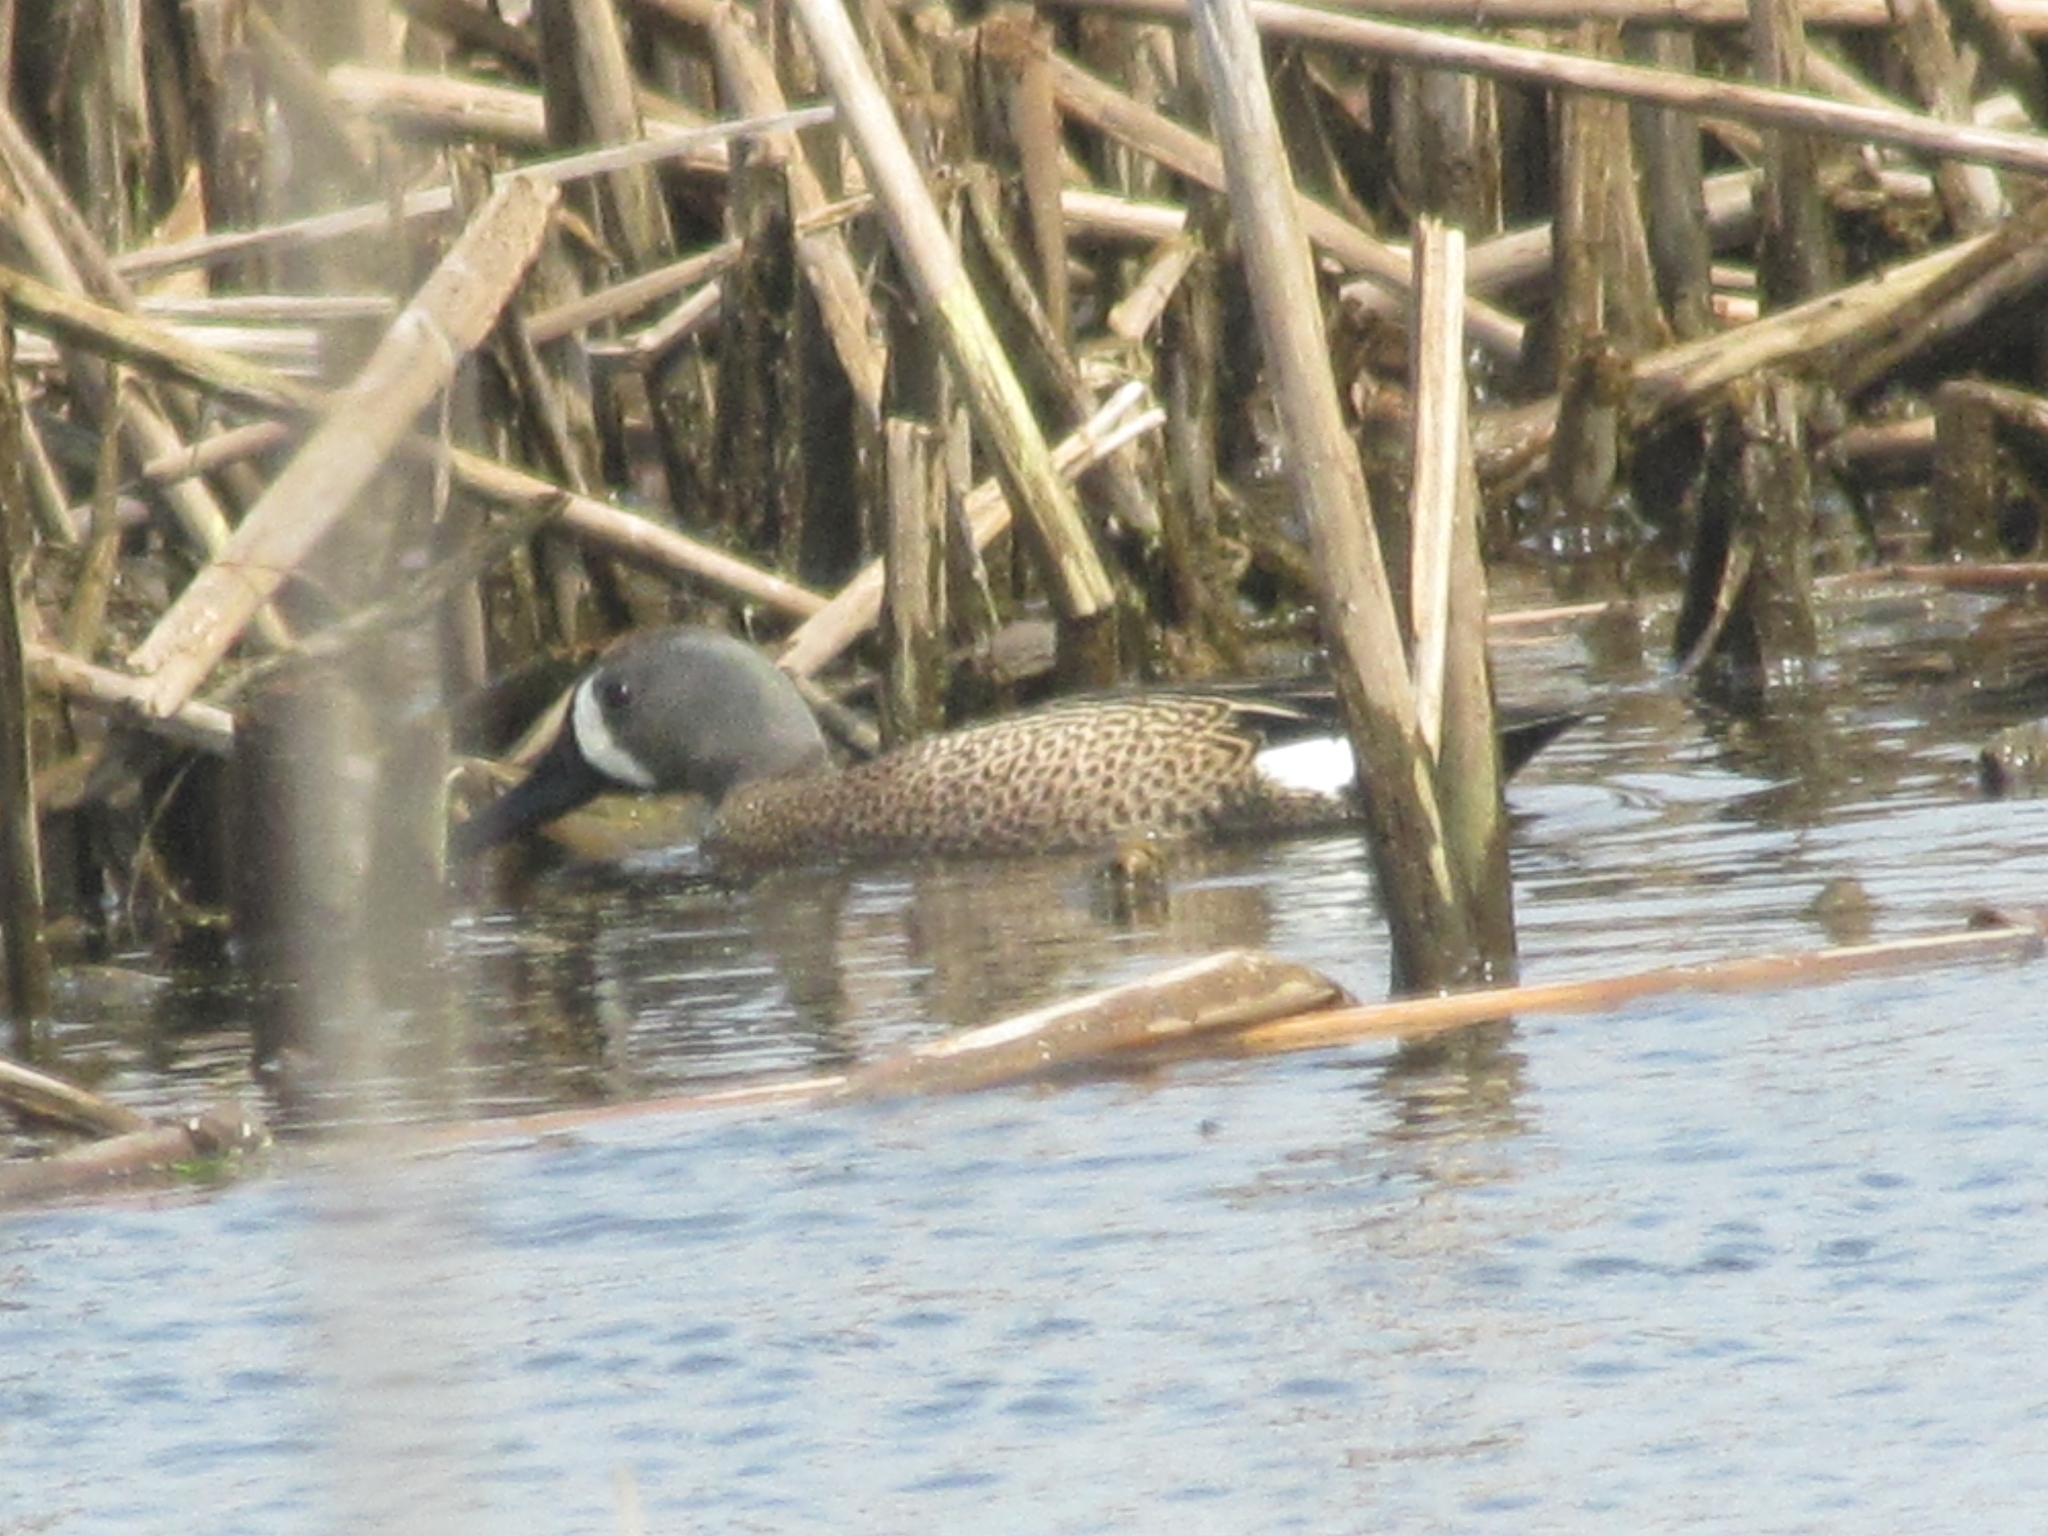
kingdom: Animalia
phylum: Chordata
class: Aves
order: Anseriformes
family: Anatidae
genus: Spatula
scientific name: Spatula discors
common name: Blue-winged teal
